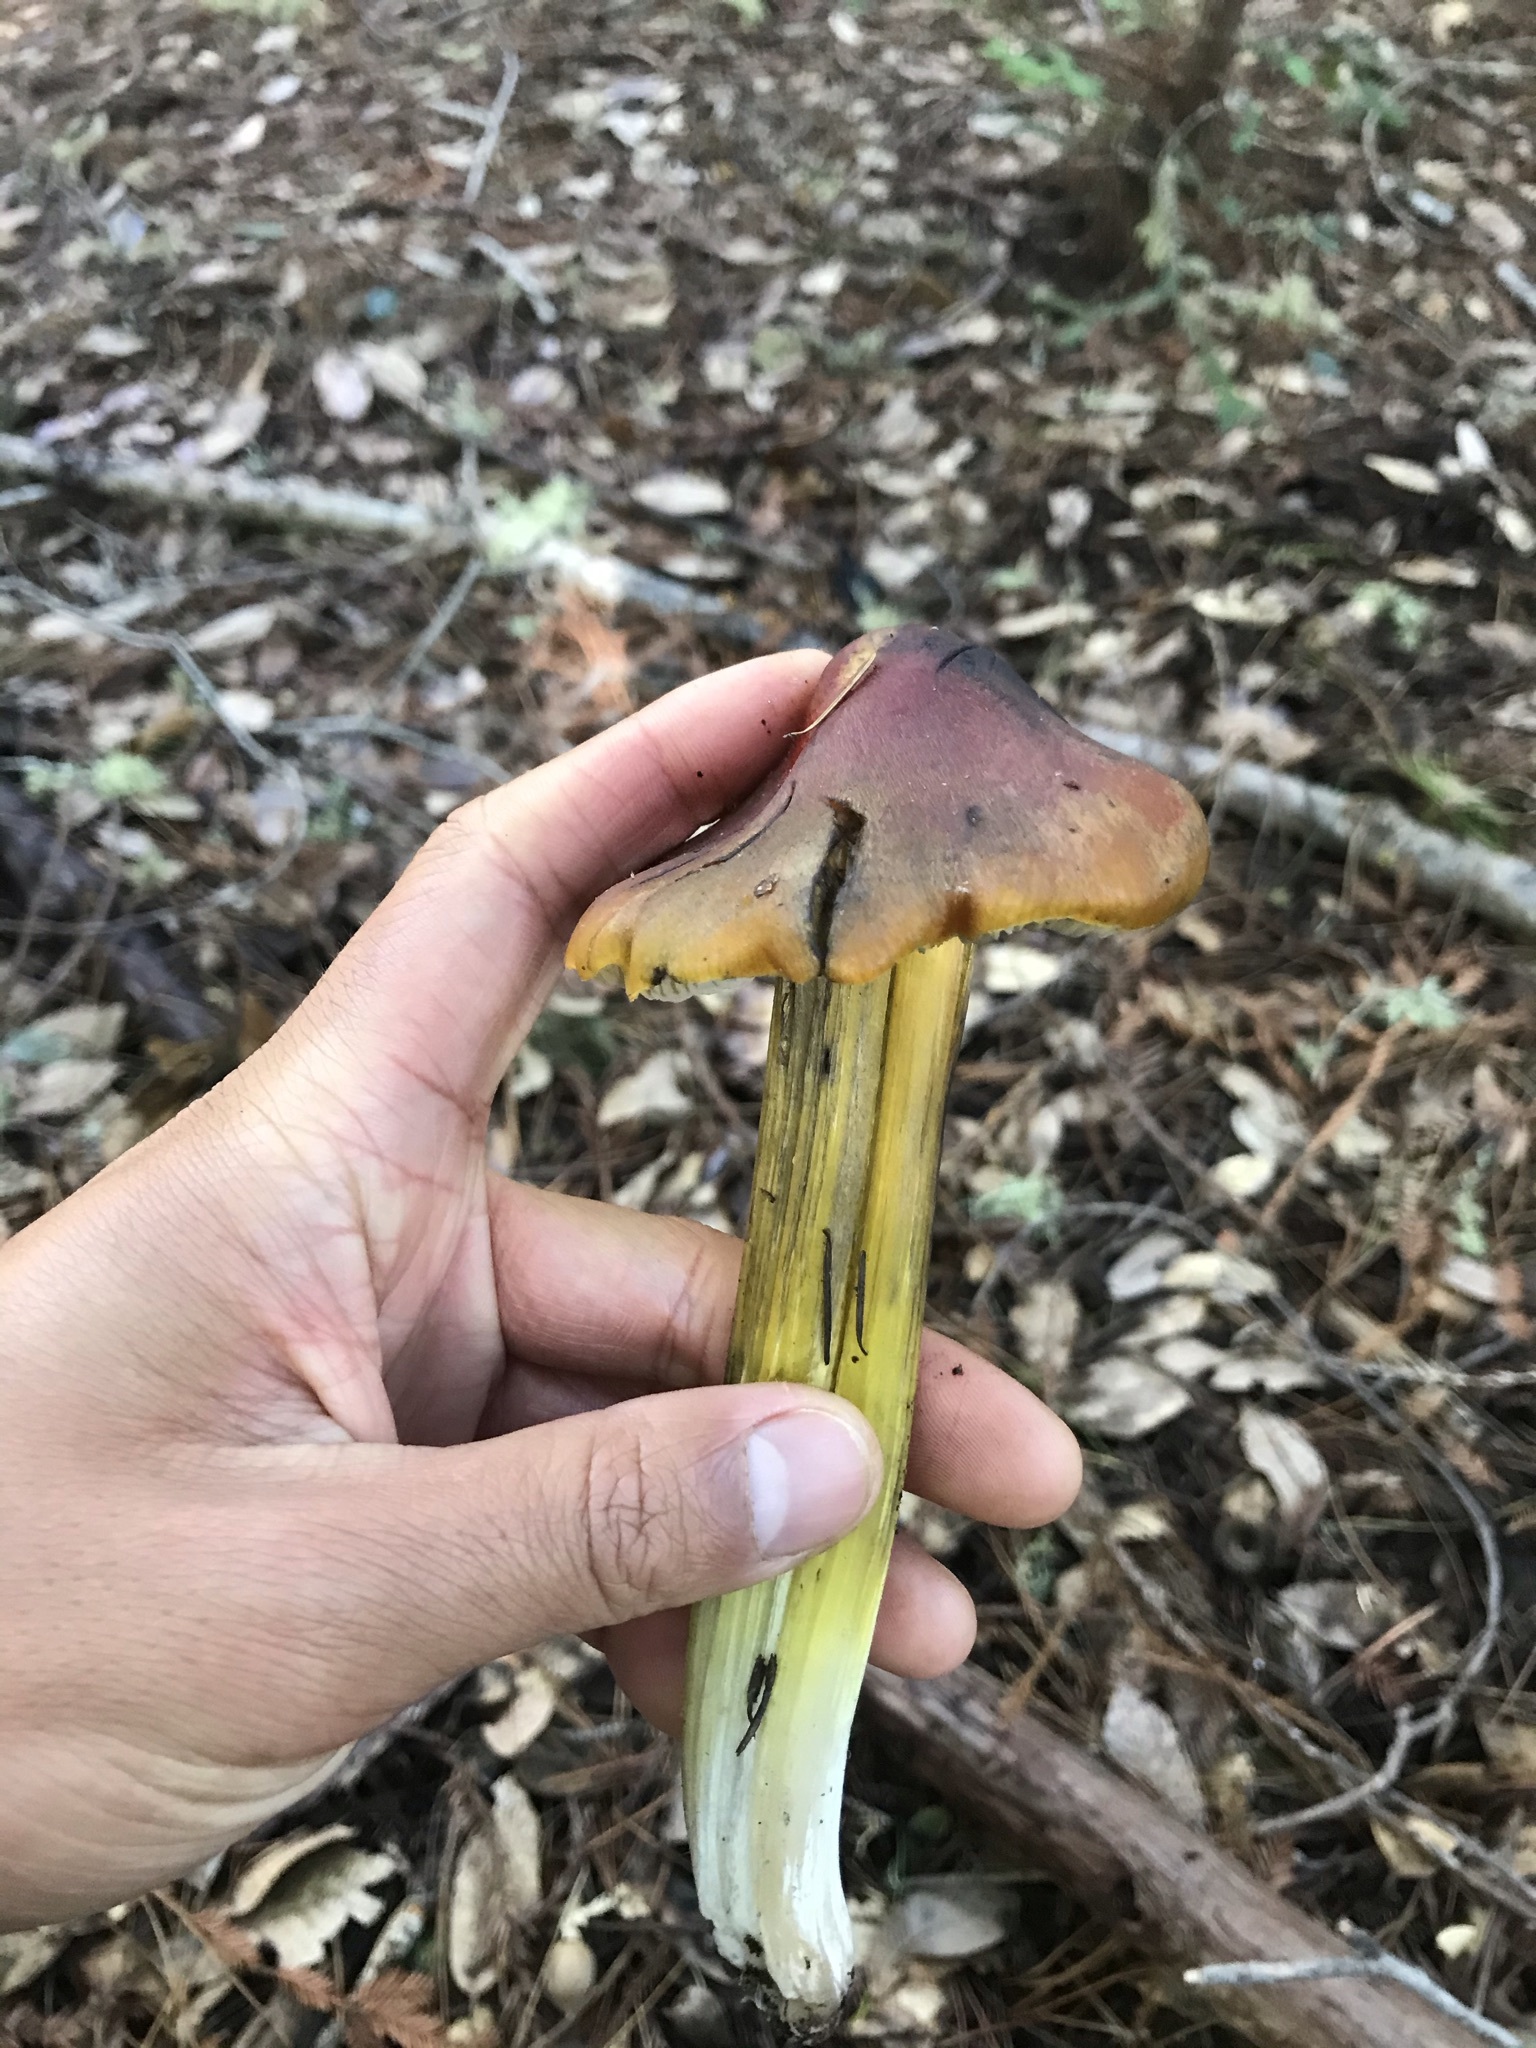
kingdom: Fungi
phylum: Basidiomycota
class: Agaricomycetes
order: Agaricales
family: Hygrophoraceae
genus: Hygrocybe
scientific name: Hygrocybe singeri
